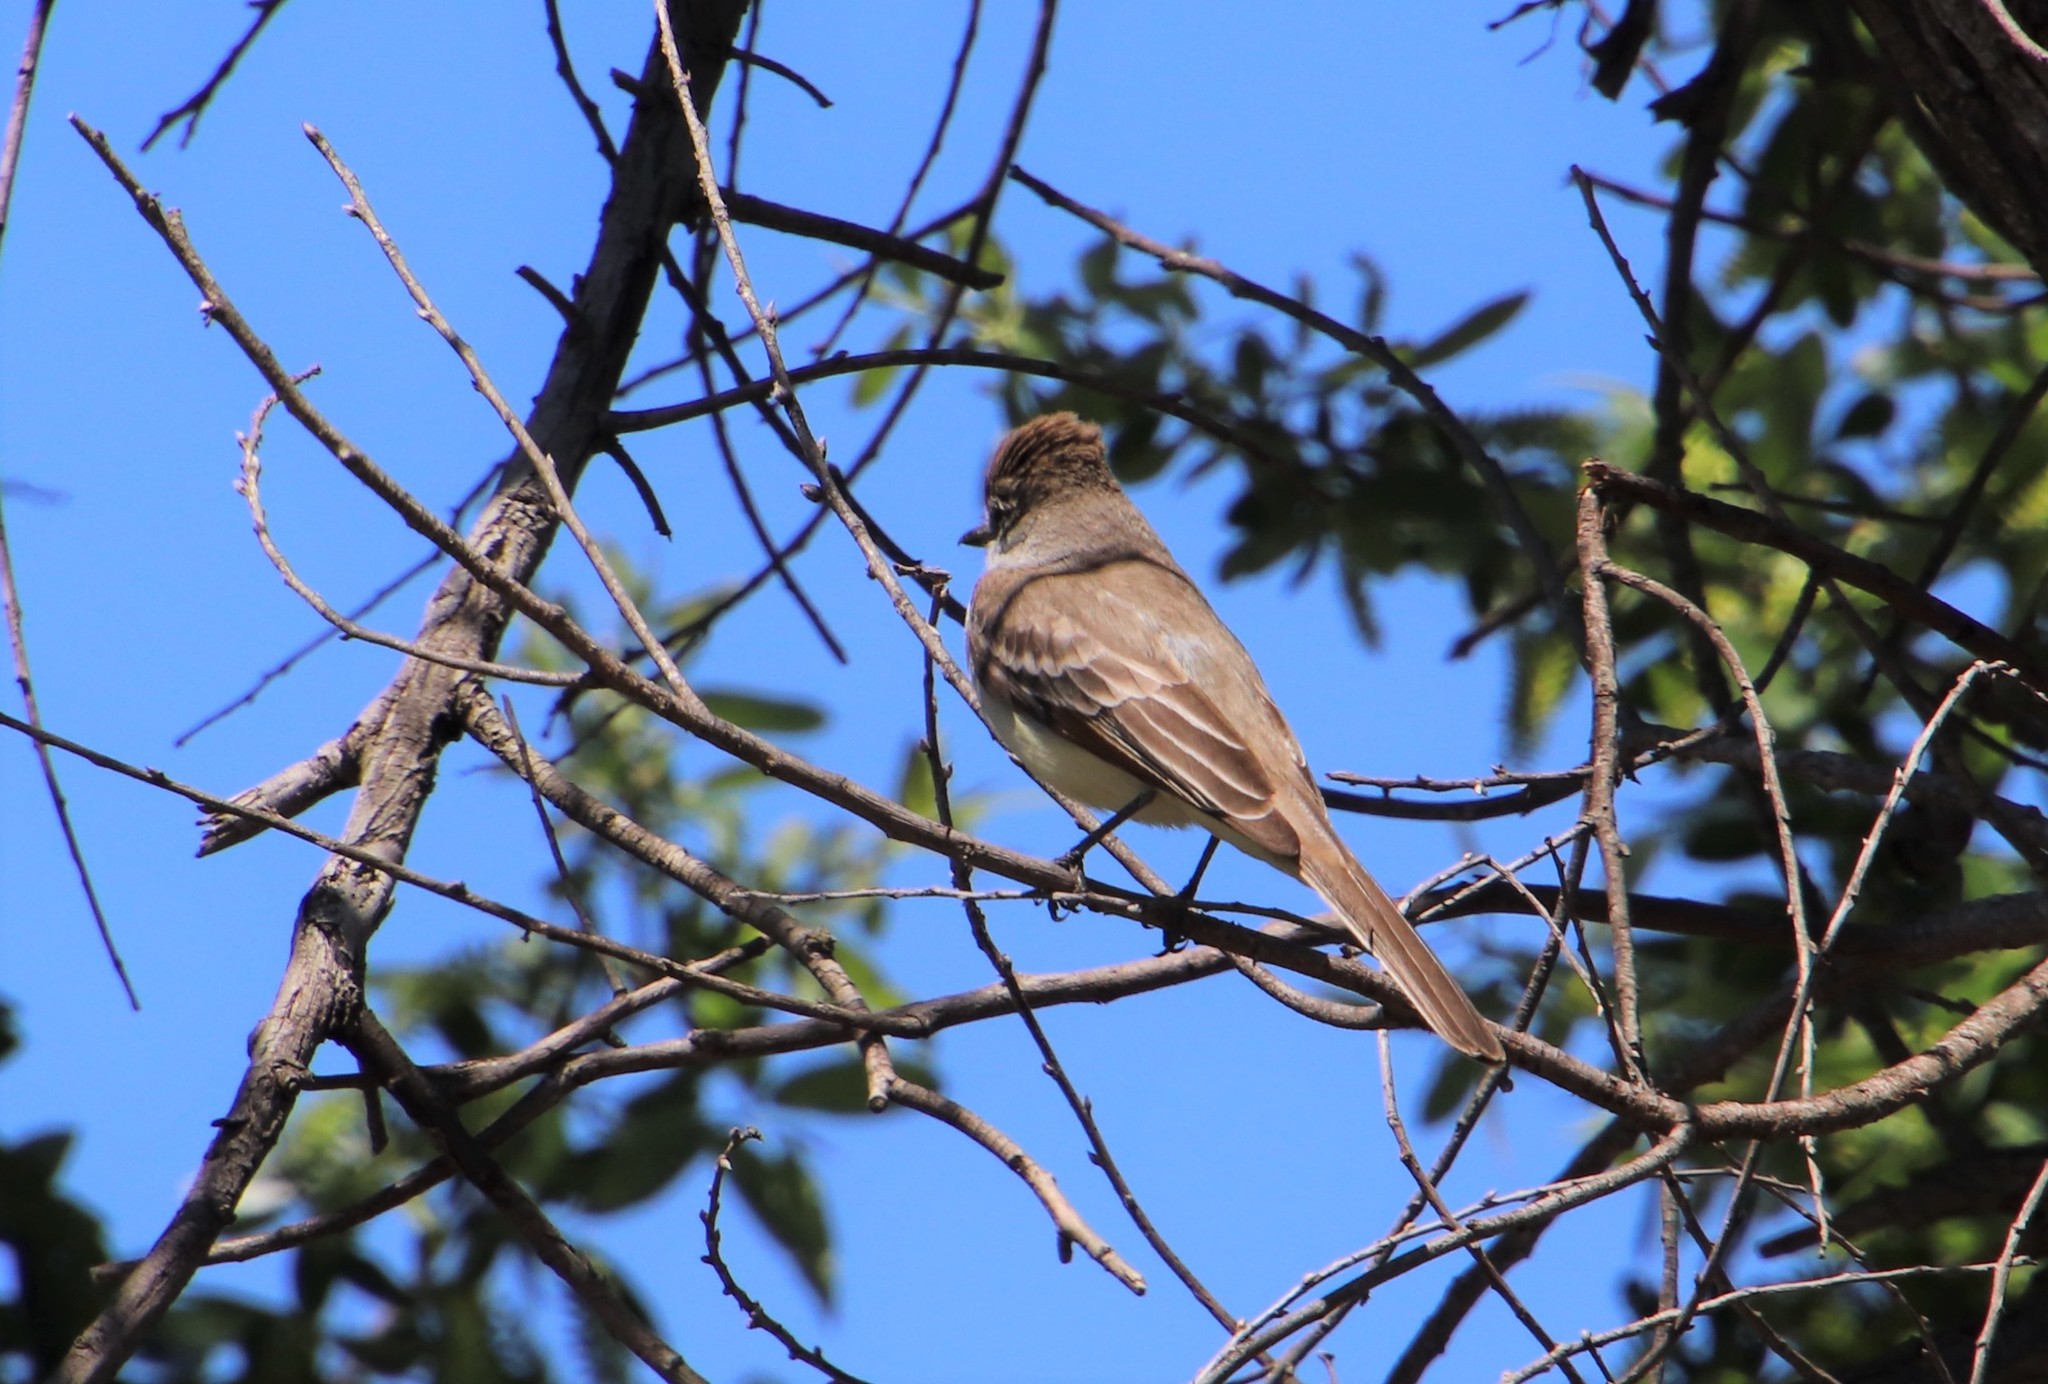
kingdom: Animalia
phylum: Chordata
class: Aves
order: Passeriformes
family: Tyrannidae
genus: Myiarchus
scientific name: Myiarchus cinerascens
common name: Ash-throated flycatcher
